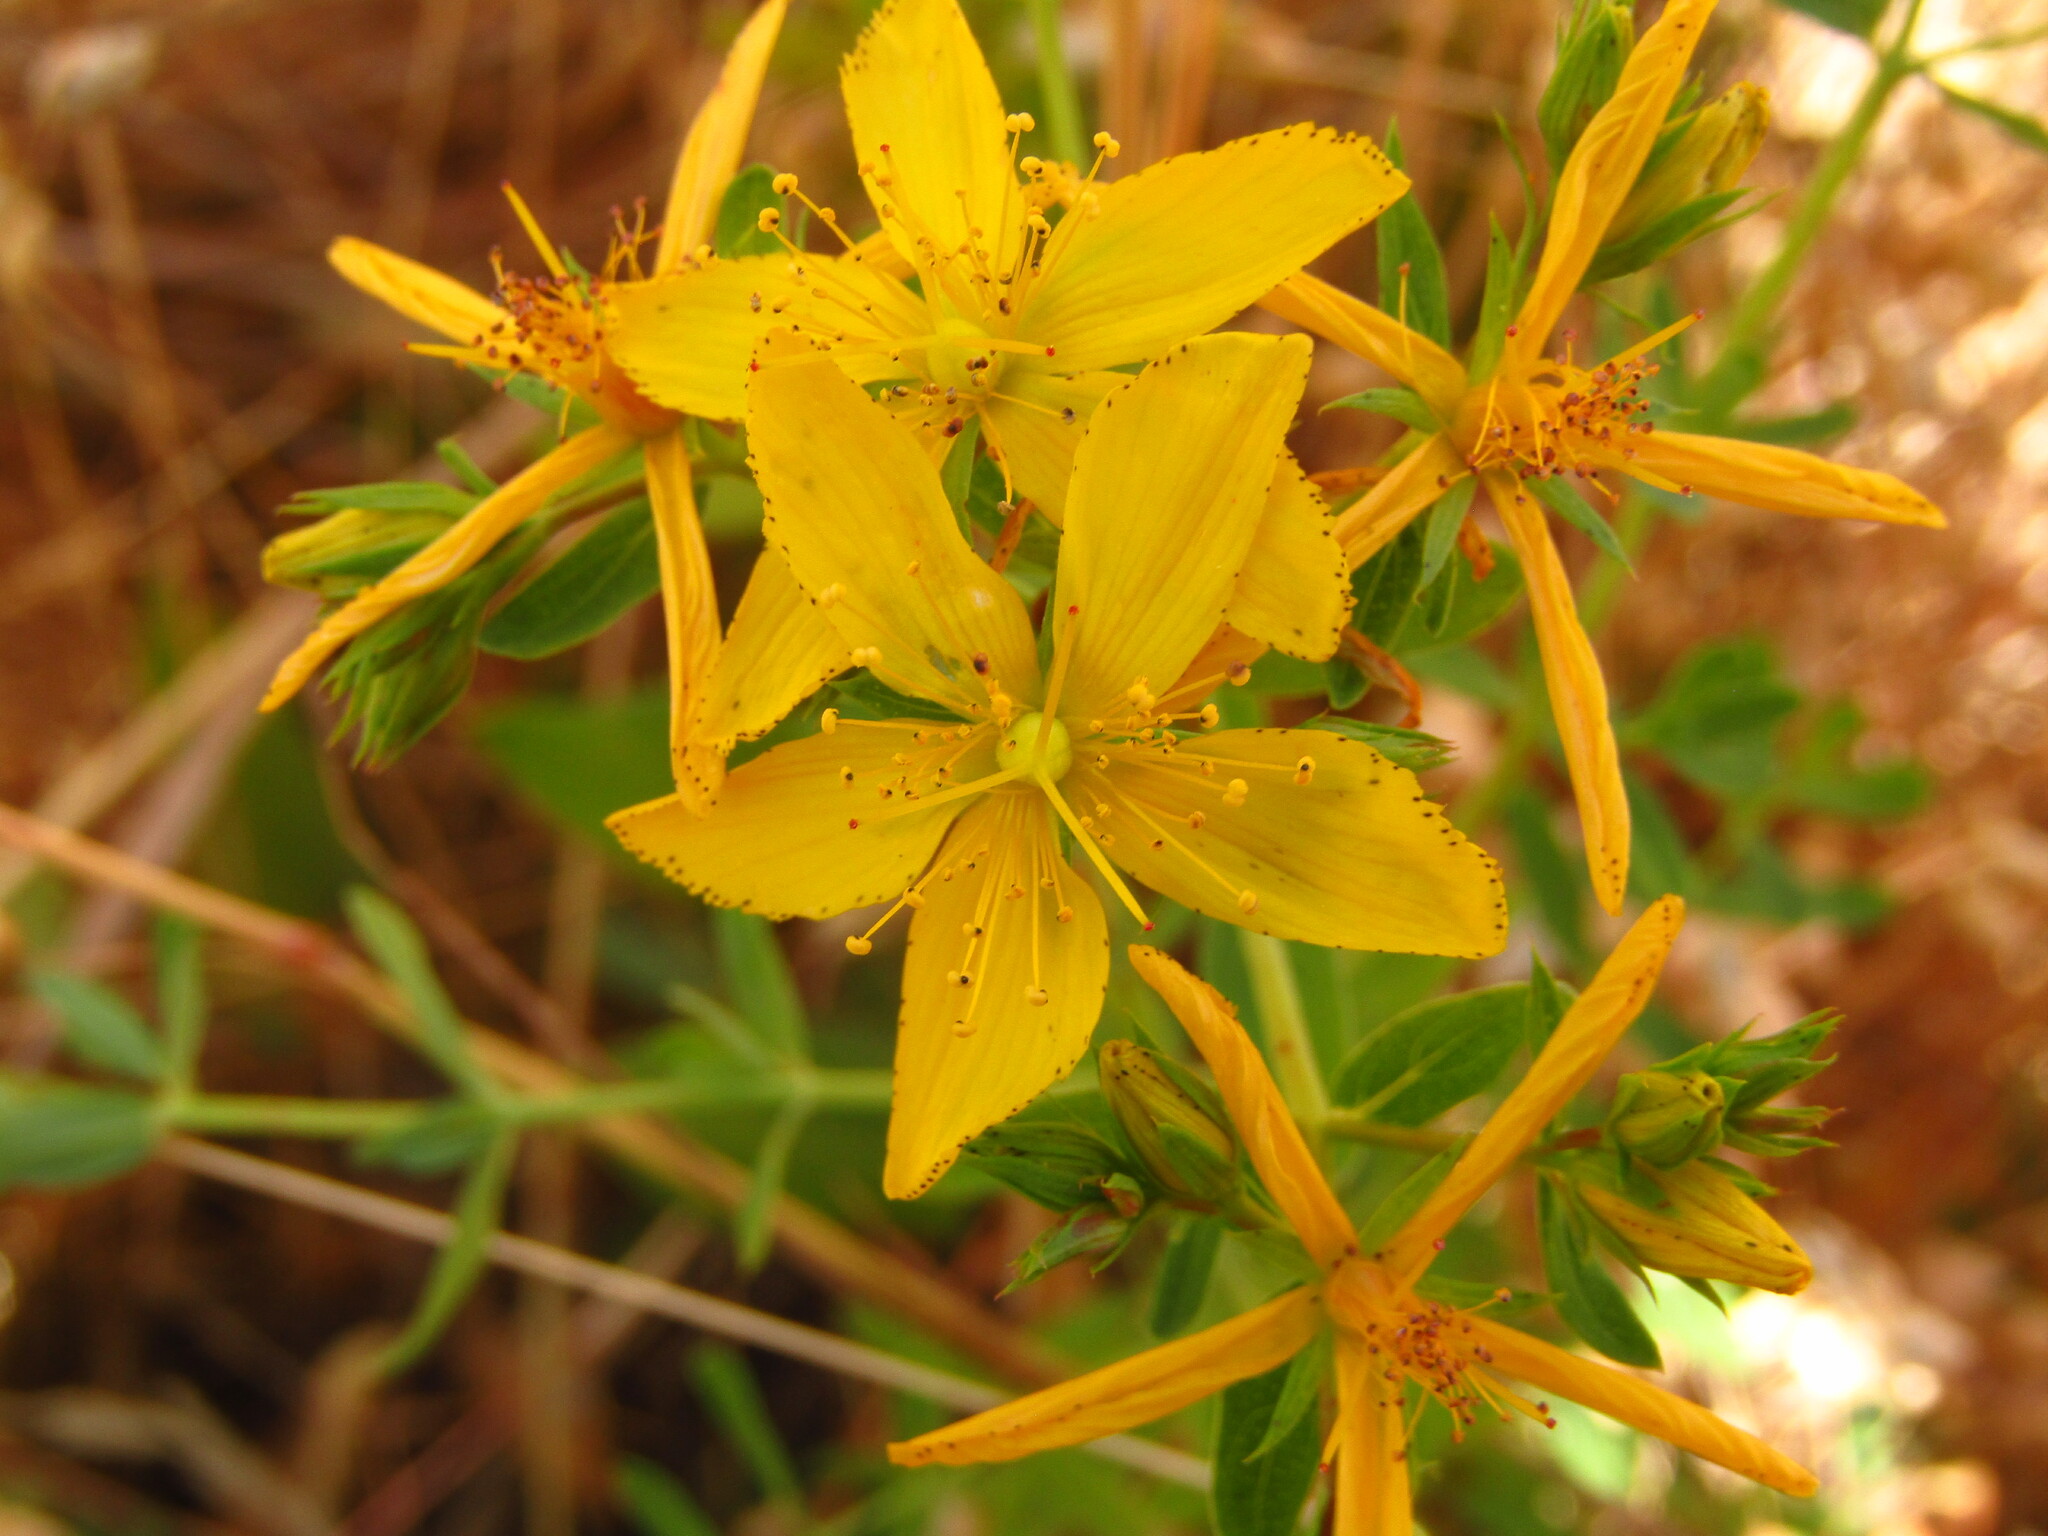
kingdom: Plantae
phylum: Tracheophyta
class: Magnoliopsida
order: Malpighiales
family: Hypericaceae
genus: Hypericum
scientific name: Hypericum perforatum
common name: Common st. johnswort
